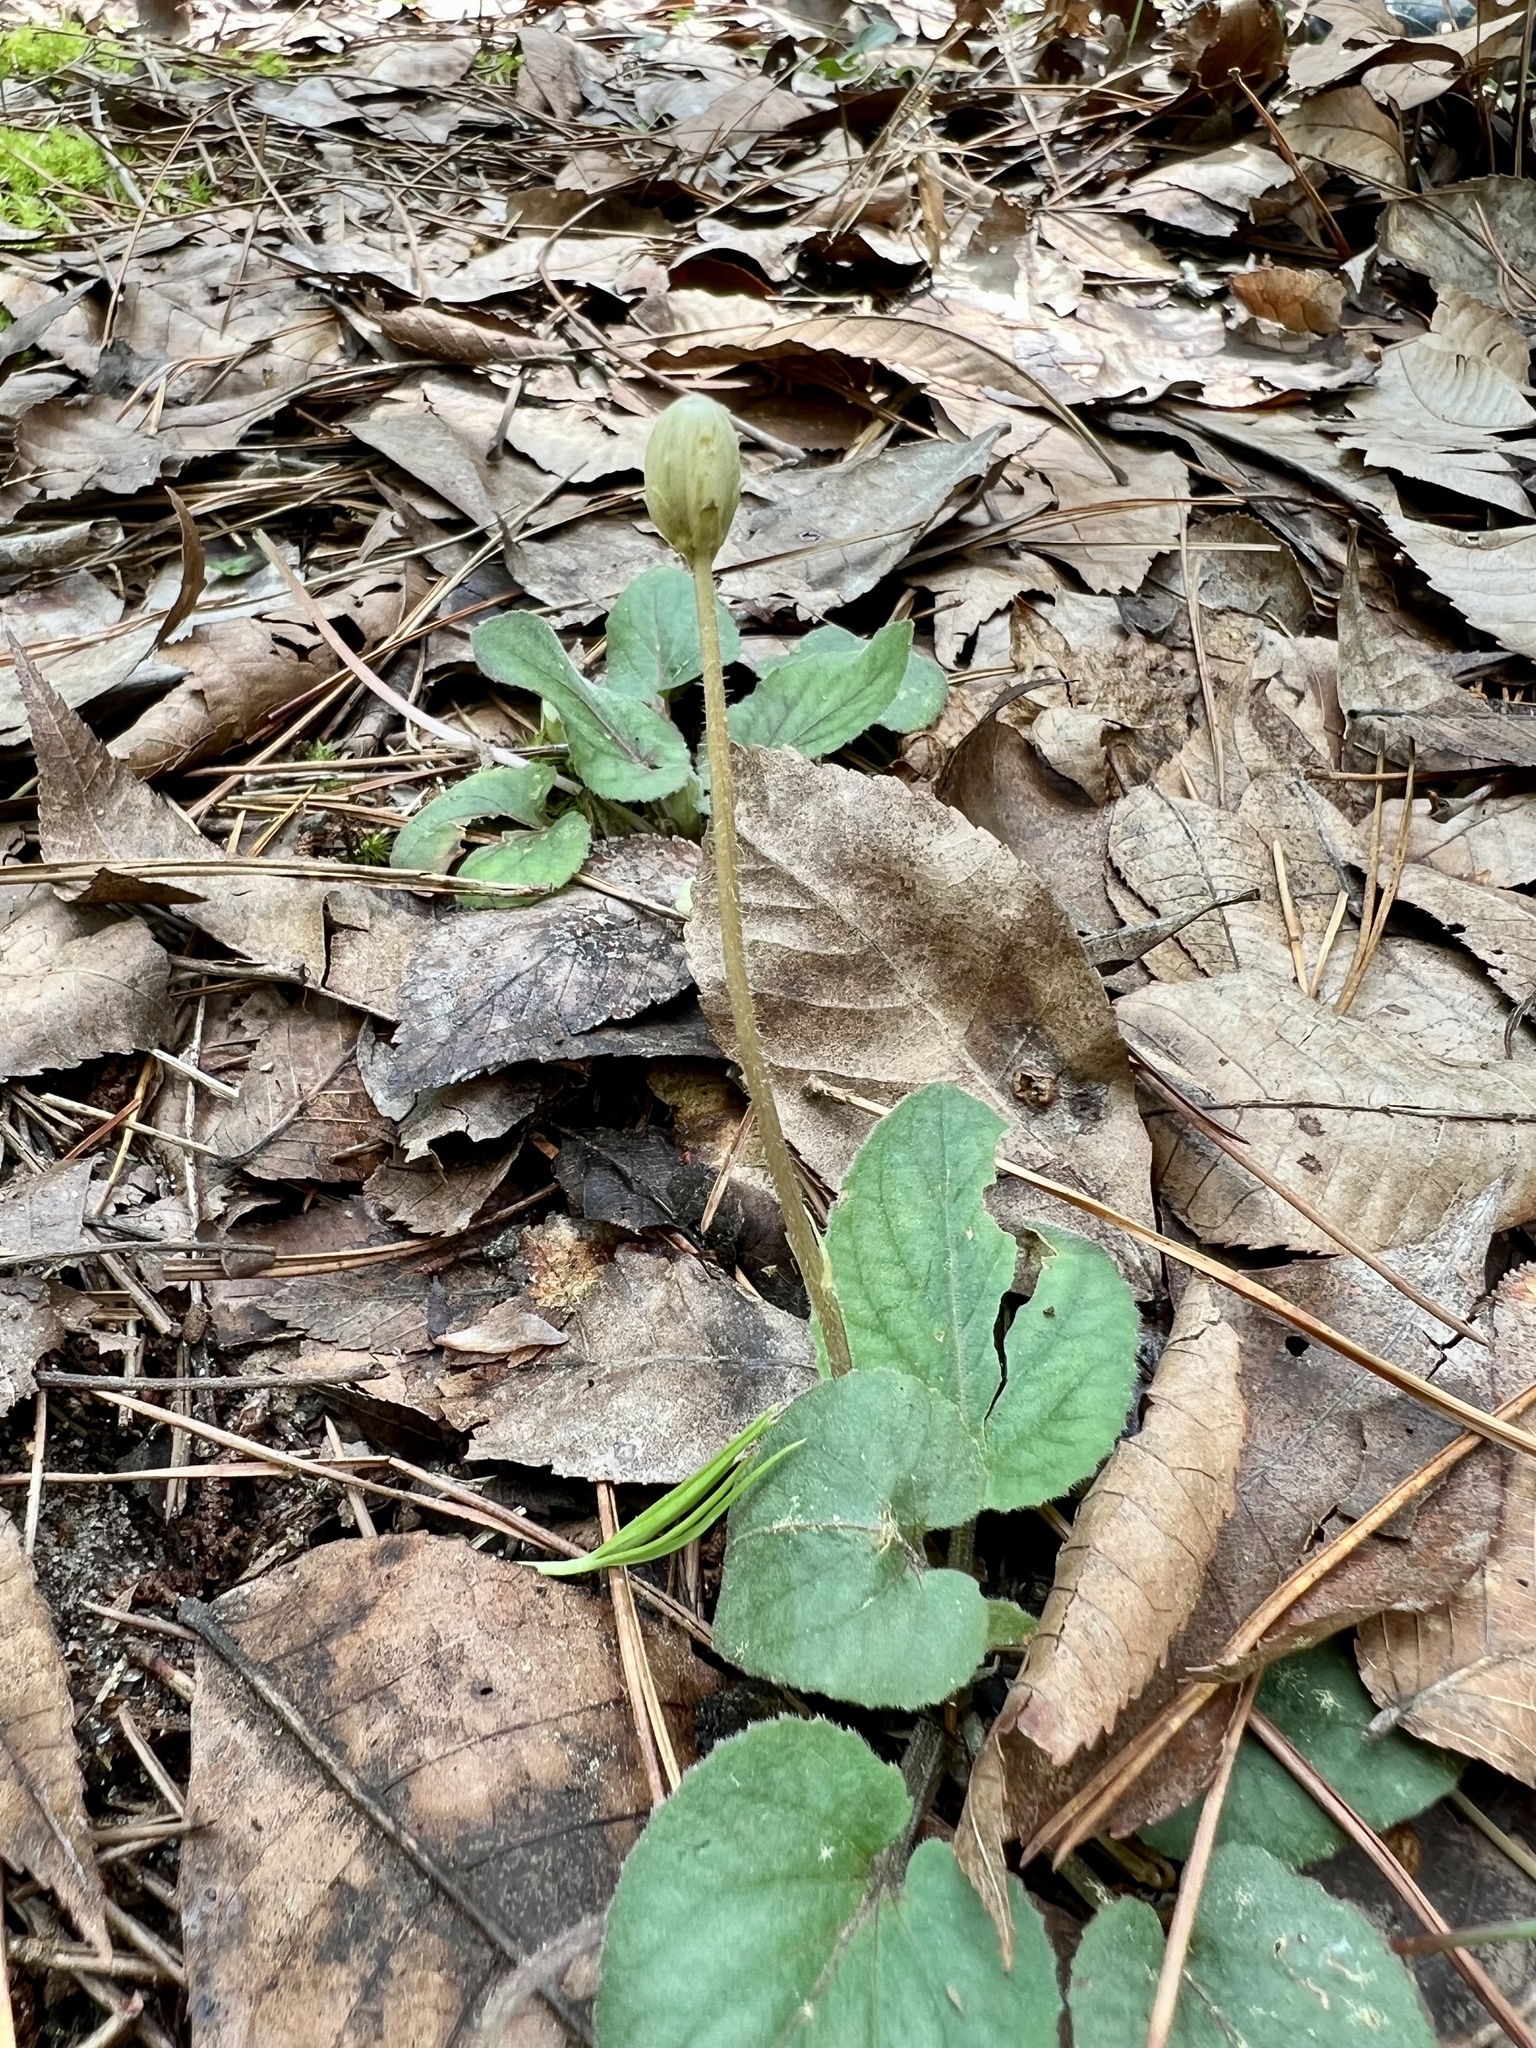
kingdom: Plantae
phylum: Tracheophyta
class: Magnoliopsida
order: Malpighiales
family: Violaceae
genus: Viola
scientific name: Viola villosa
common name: Carolina violet
